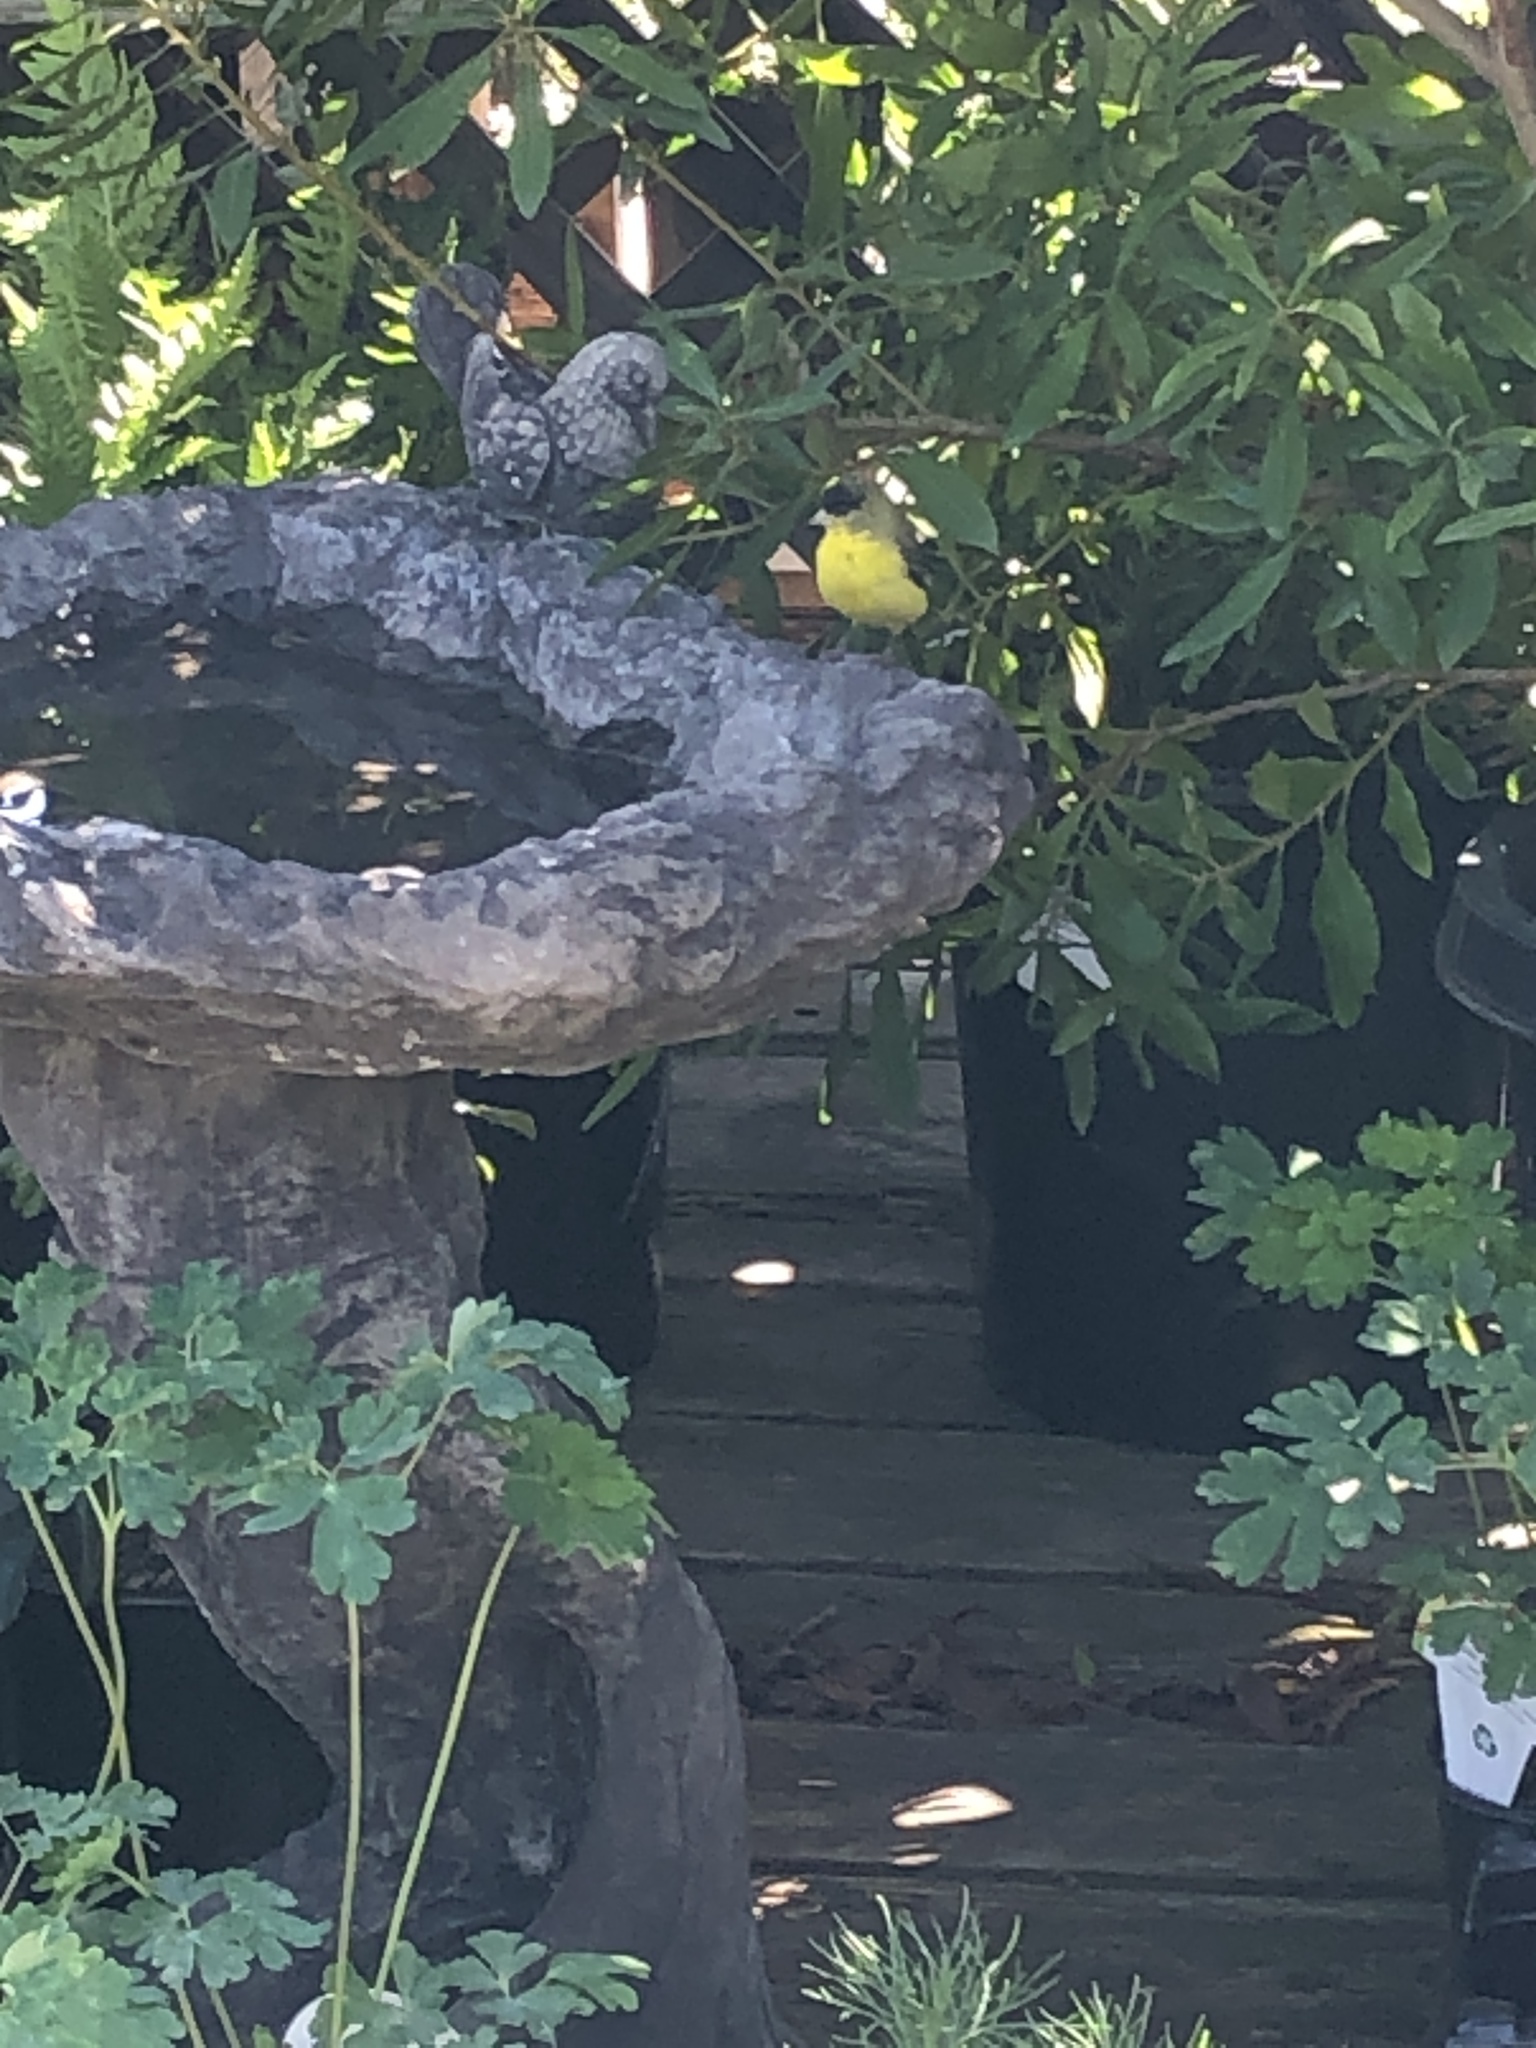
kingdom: Animalia
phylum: Chordata
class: Aves
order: Passeriformes
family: Fringillidae
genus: Spinus
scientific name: Spinus psaltria
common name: Lesser goldfinch
